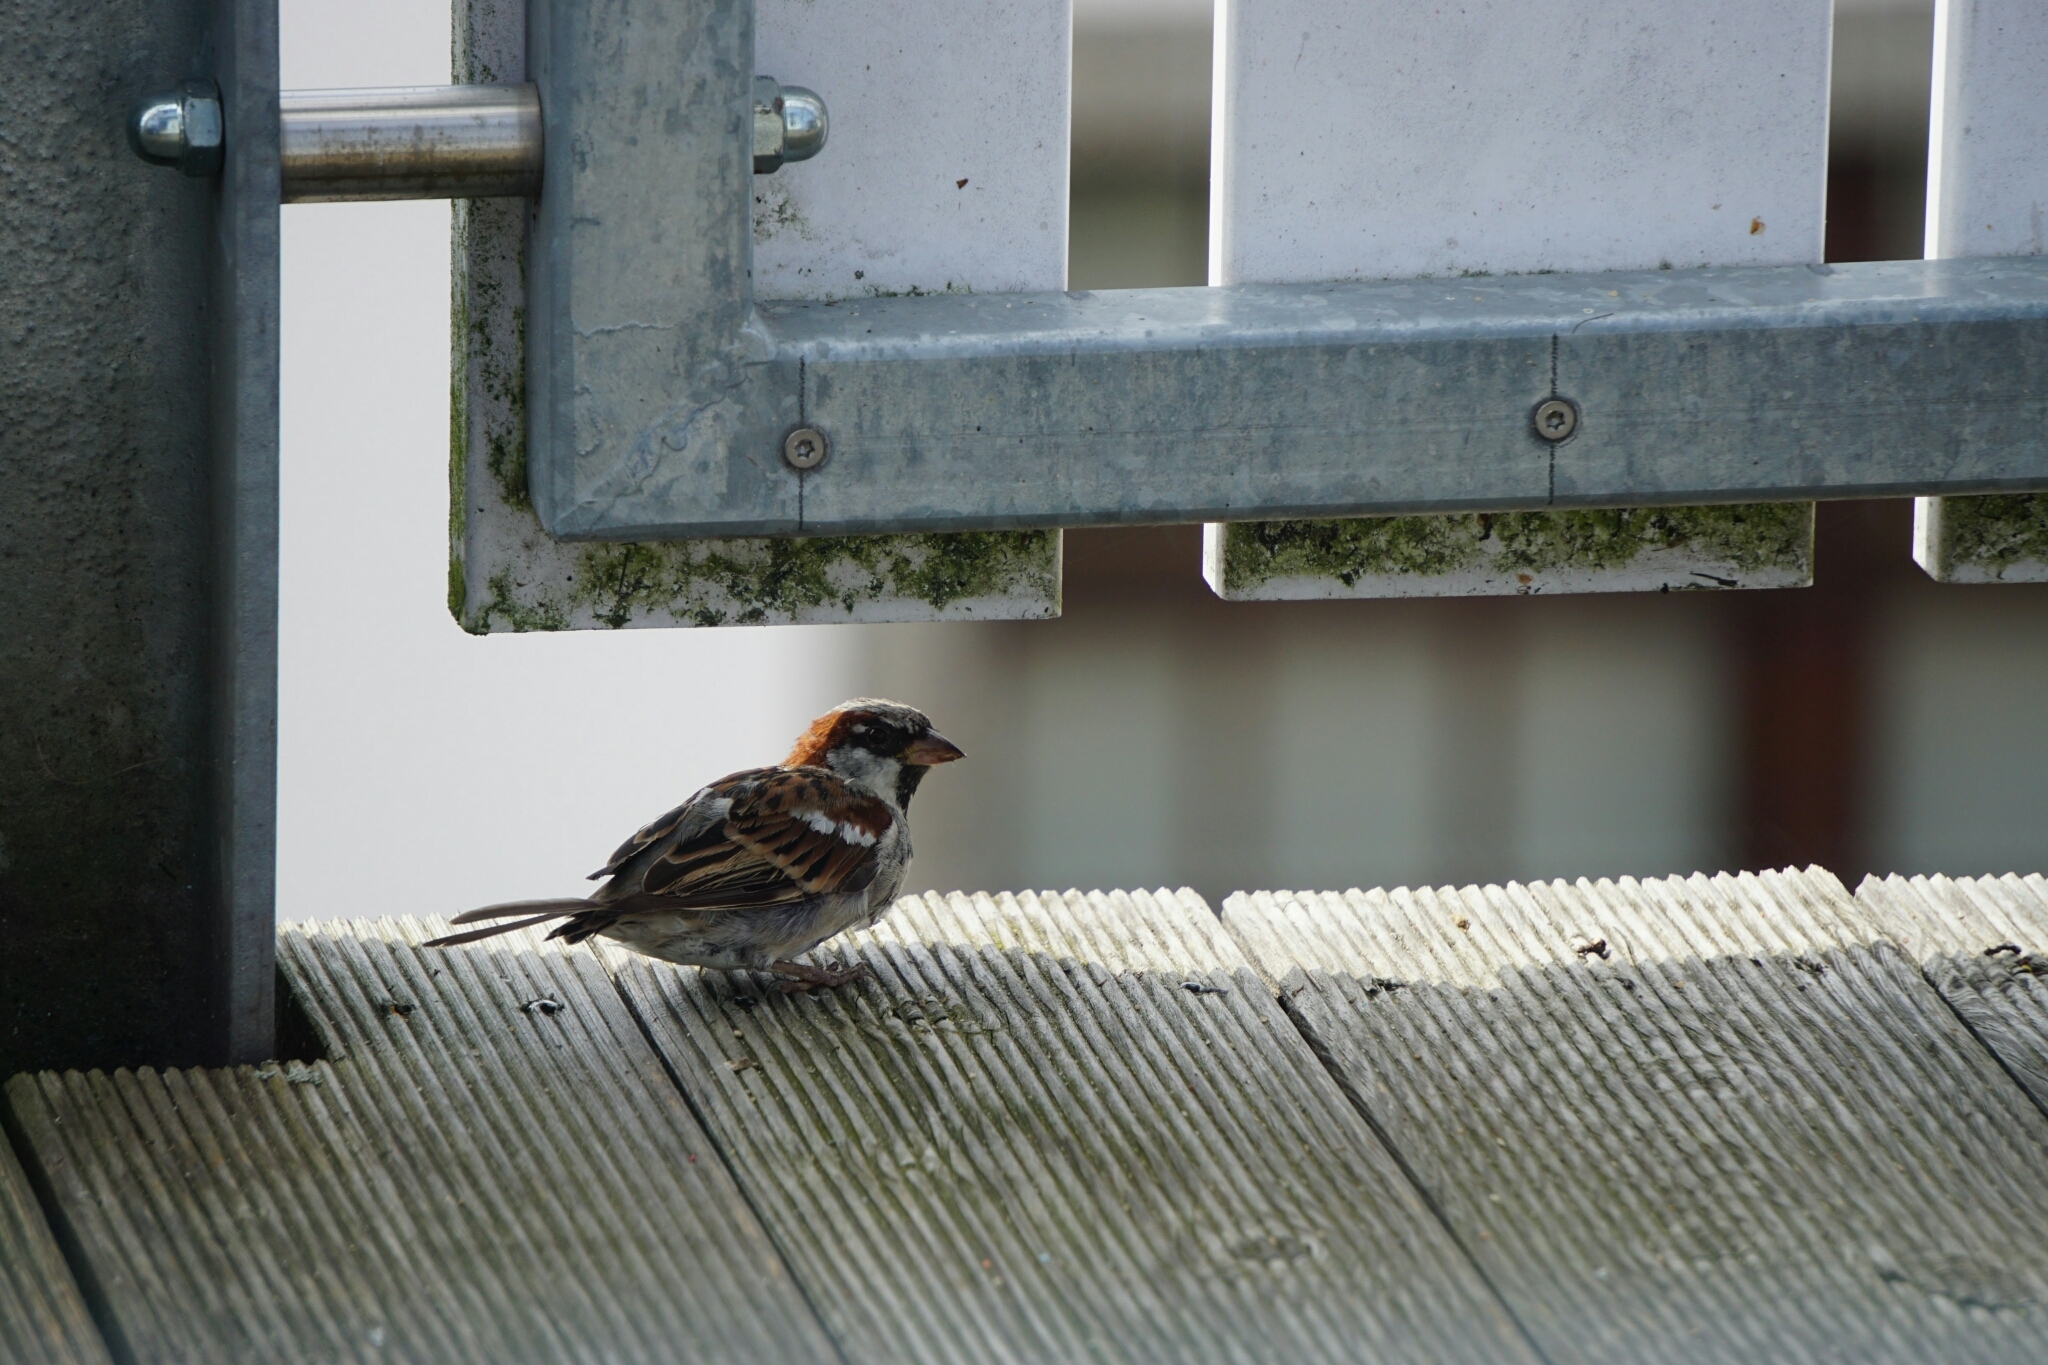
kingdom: Animalia
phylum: Chordata
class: Aves
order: Passeriformes
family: Passeridae
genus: Passer
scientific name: Passer domesticus
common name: House sparrow
